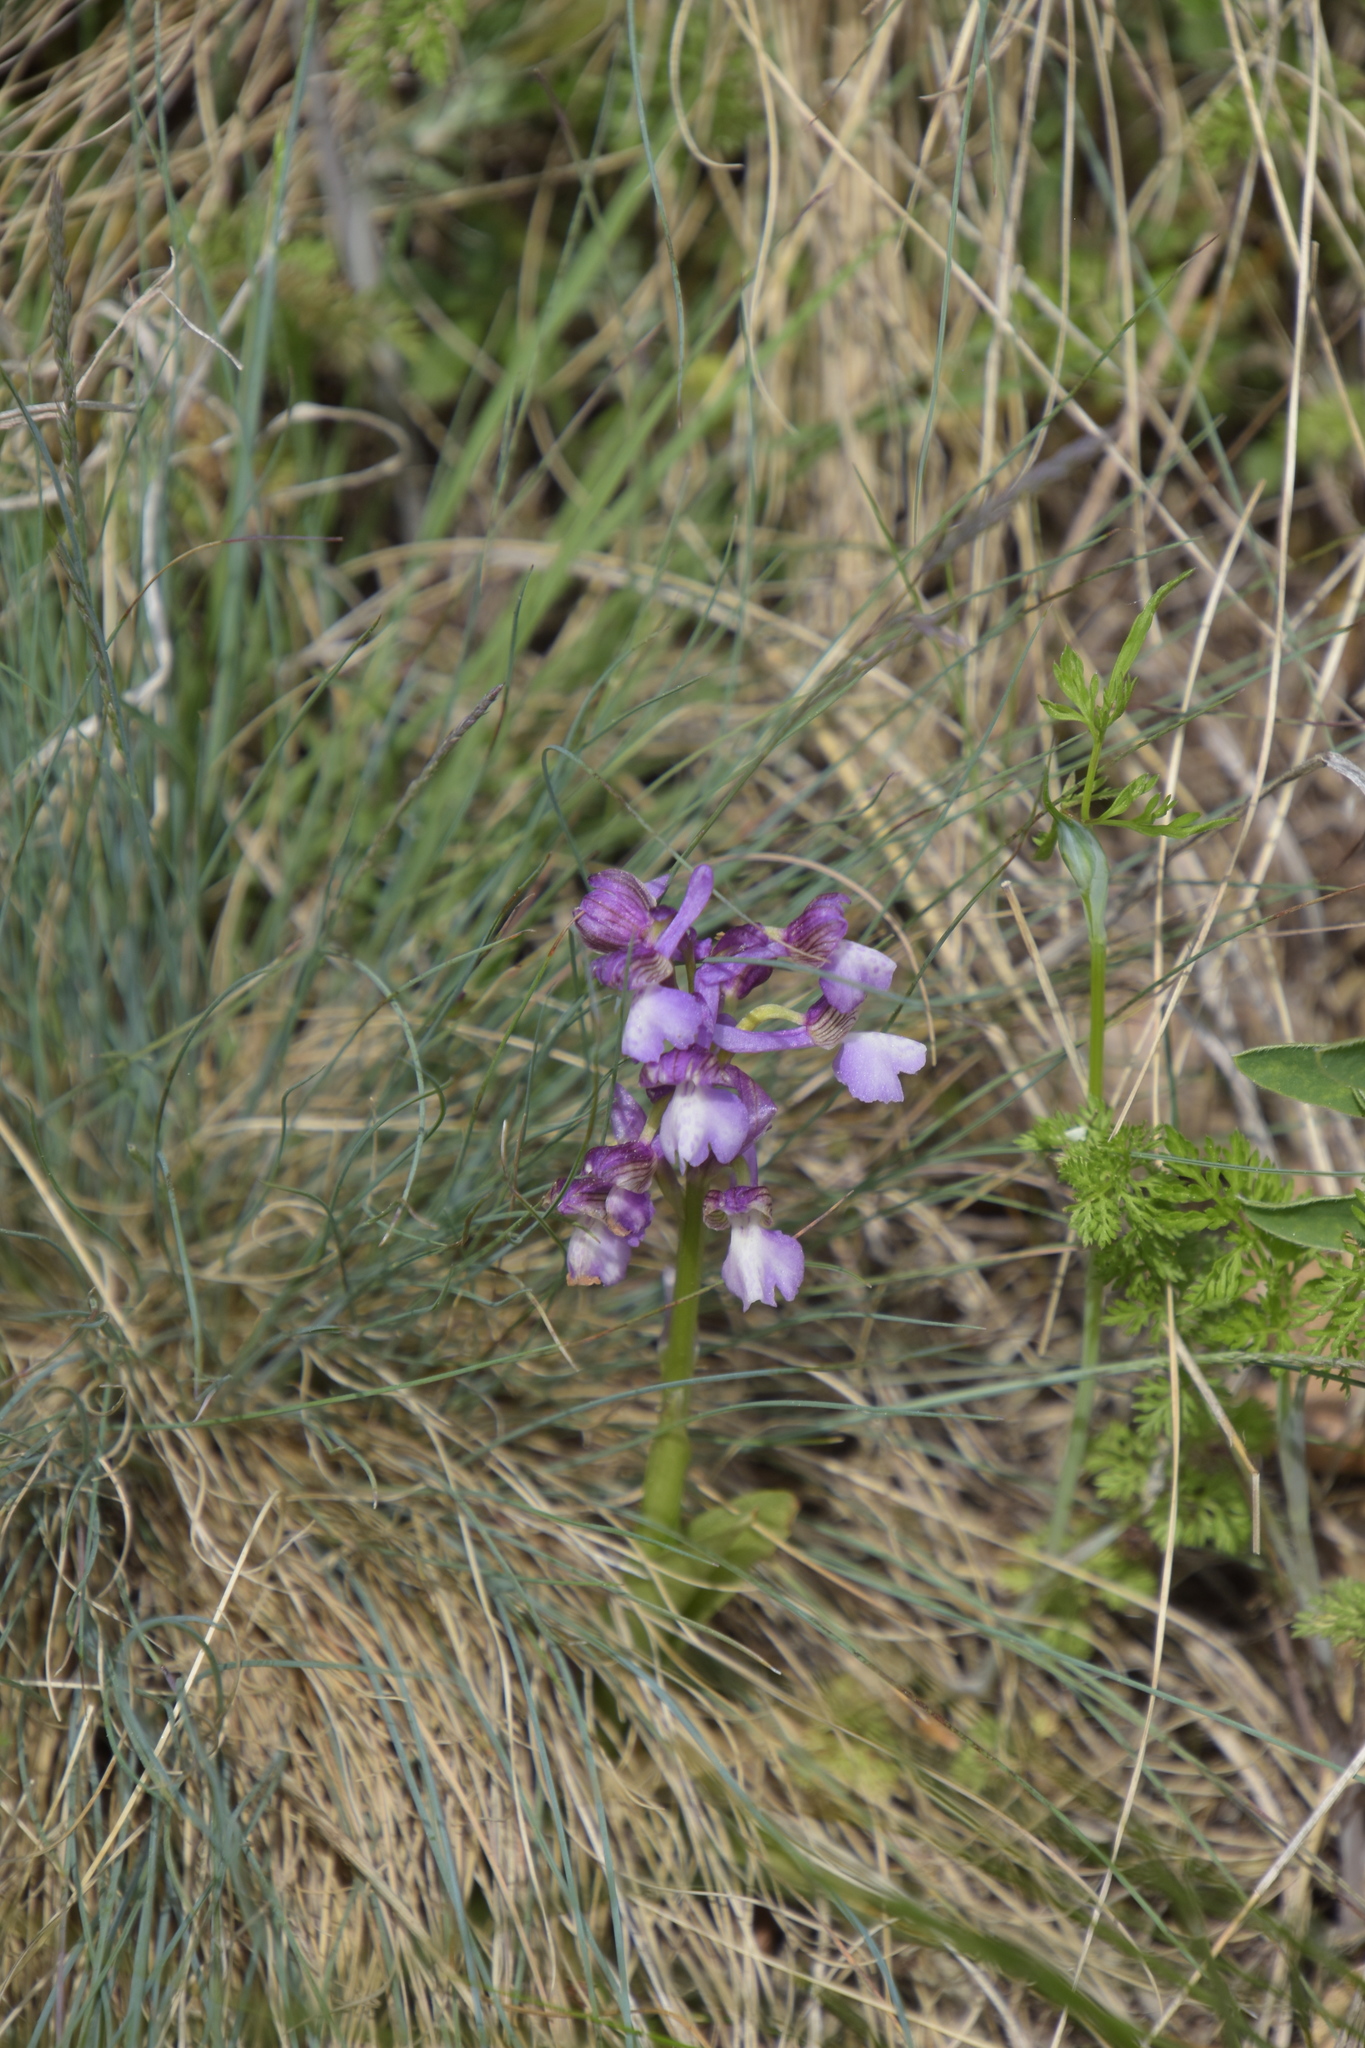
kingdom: Plantae
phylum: Tracheophyta
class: Liliopsida
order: Asparagales
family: Orchidaceae
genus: Anacamptis
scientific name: Anacamptis morio
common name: Green-winged orchid
